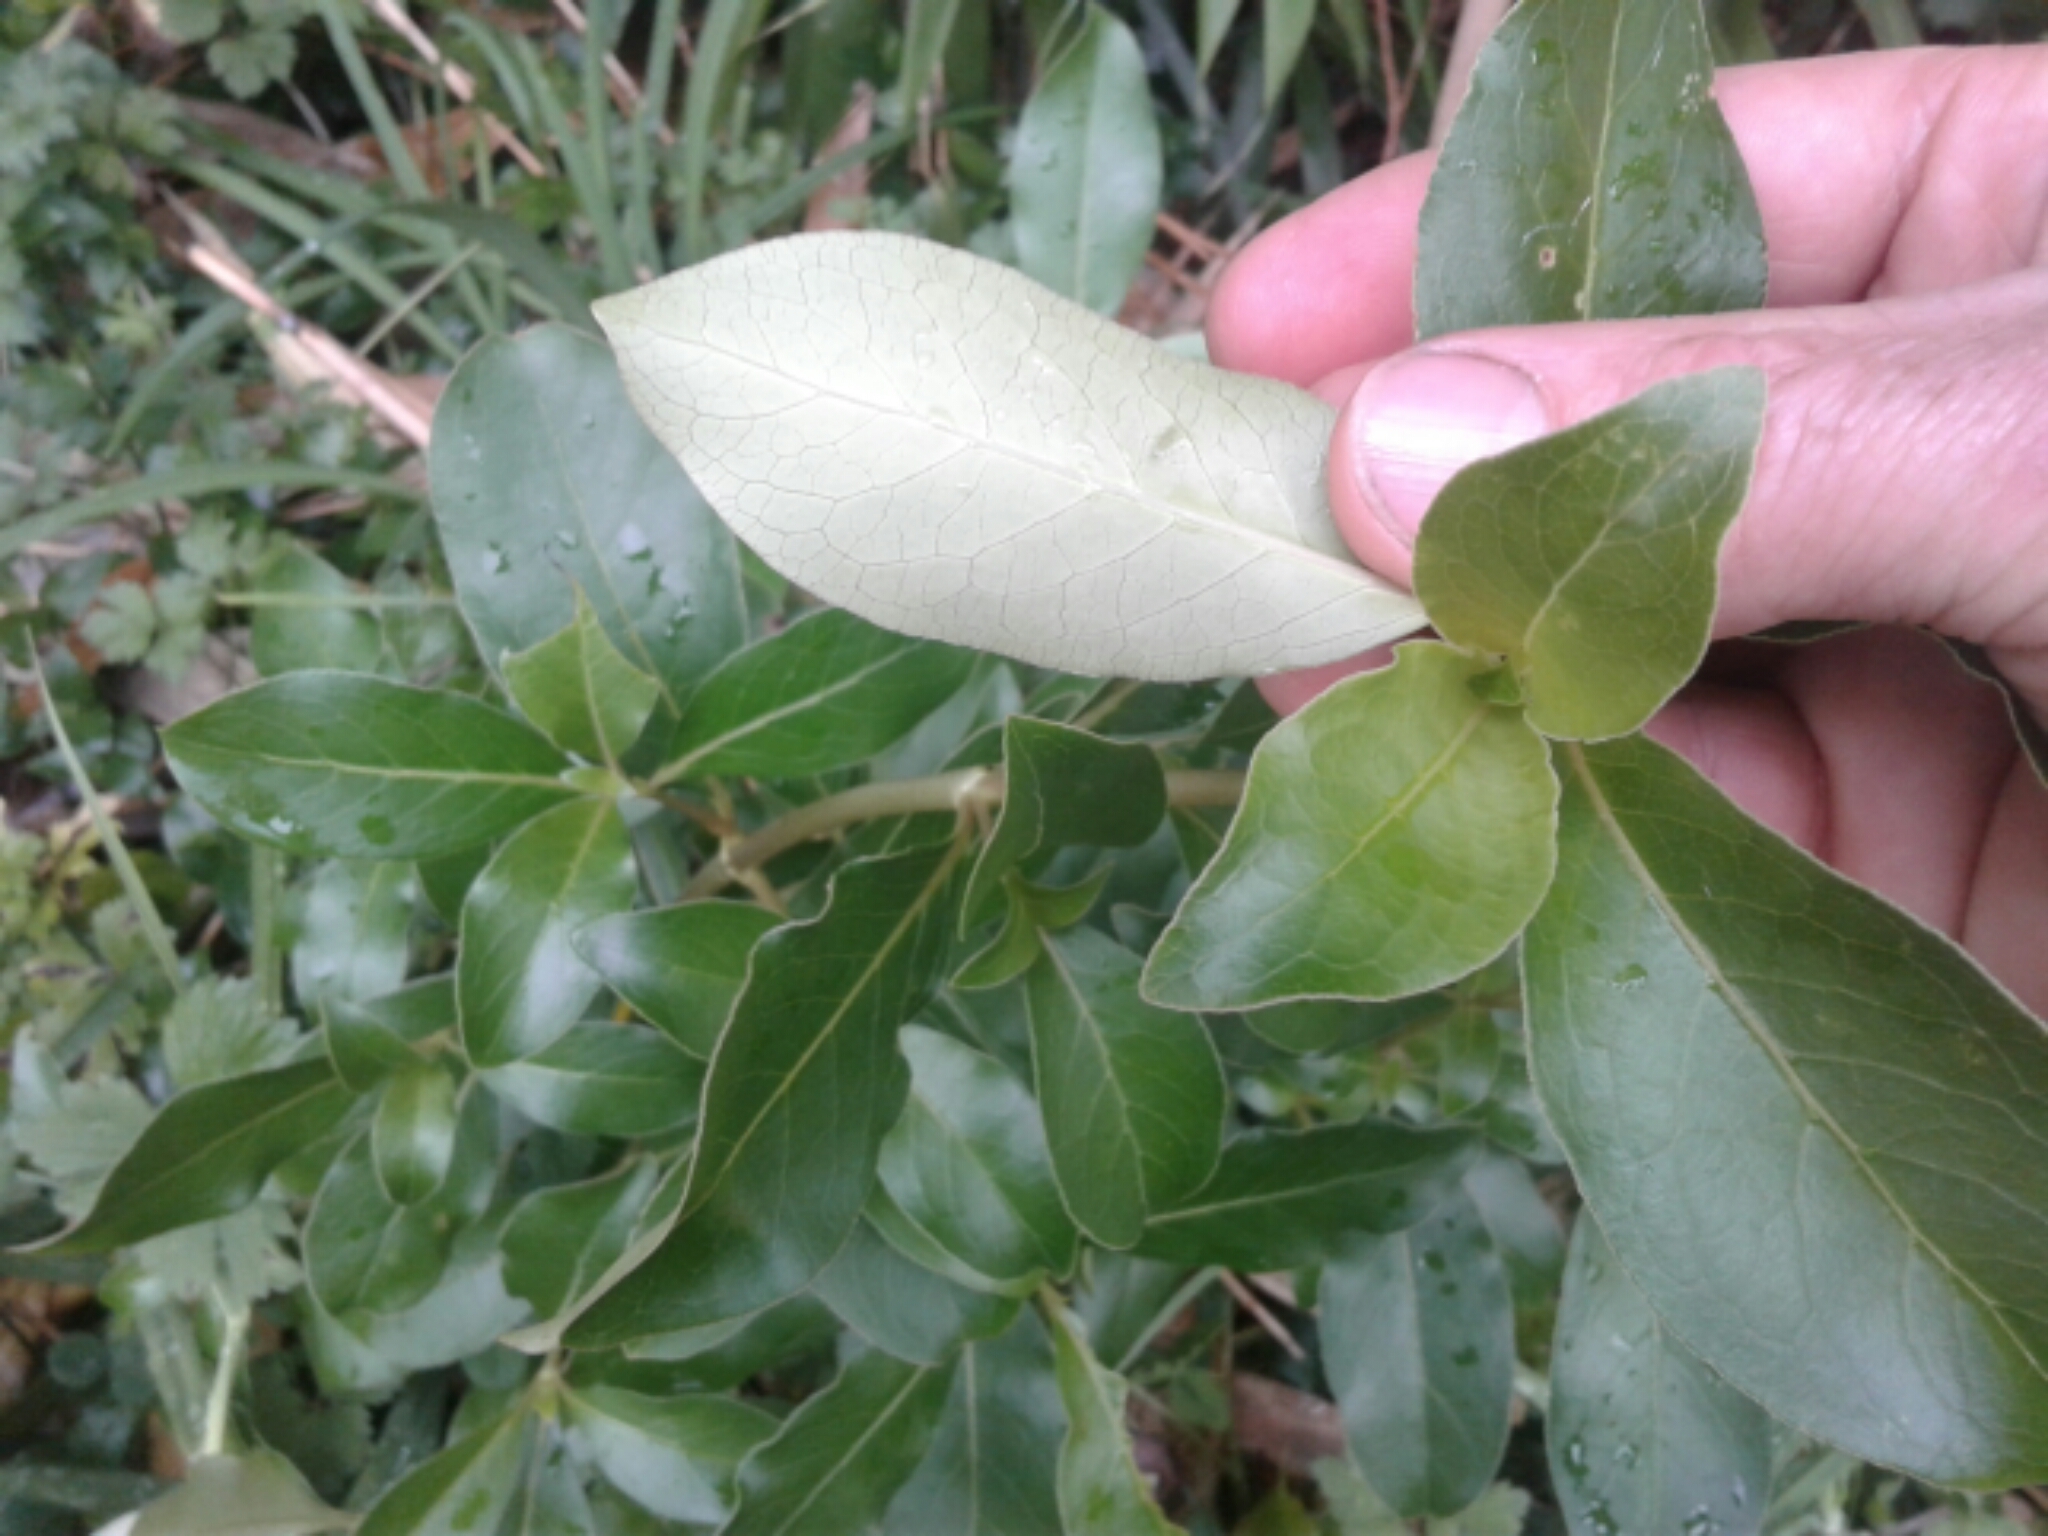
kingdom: Plantae
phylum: Tracheophyta
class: Magnoliopsida
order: Gentianales
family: Rubiaceae
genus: Coprosma
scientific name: Coprosma robusta
